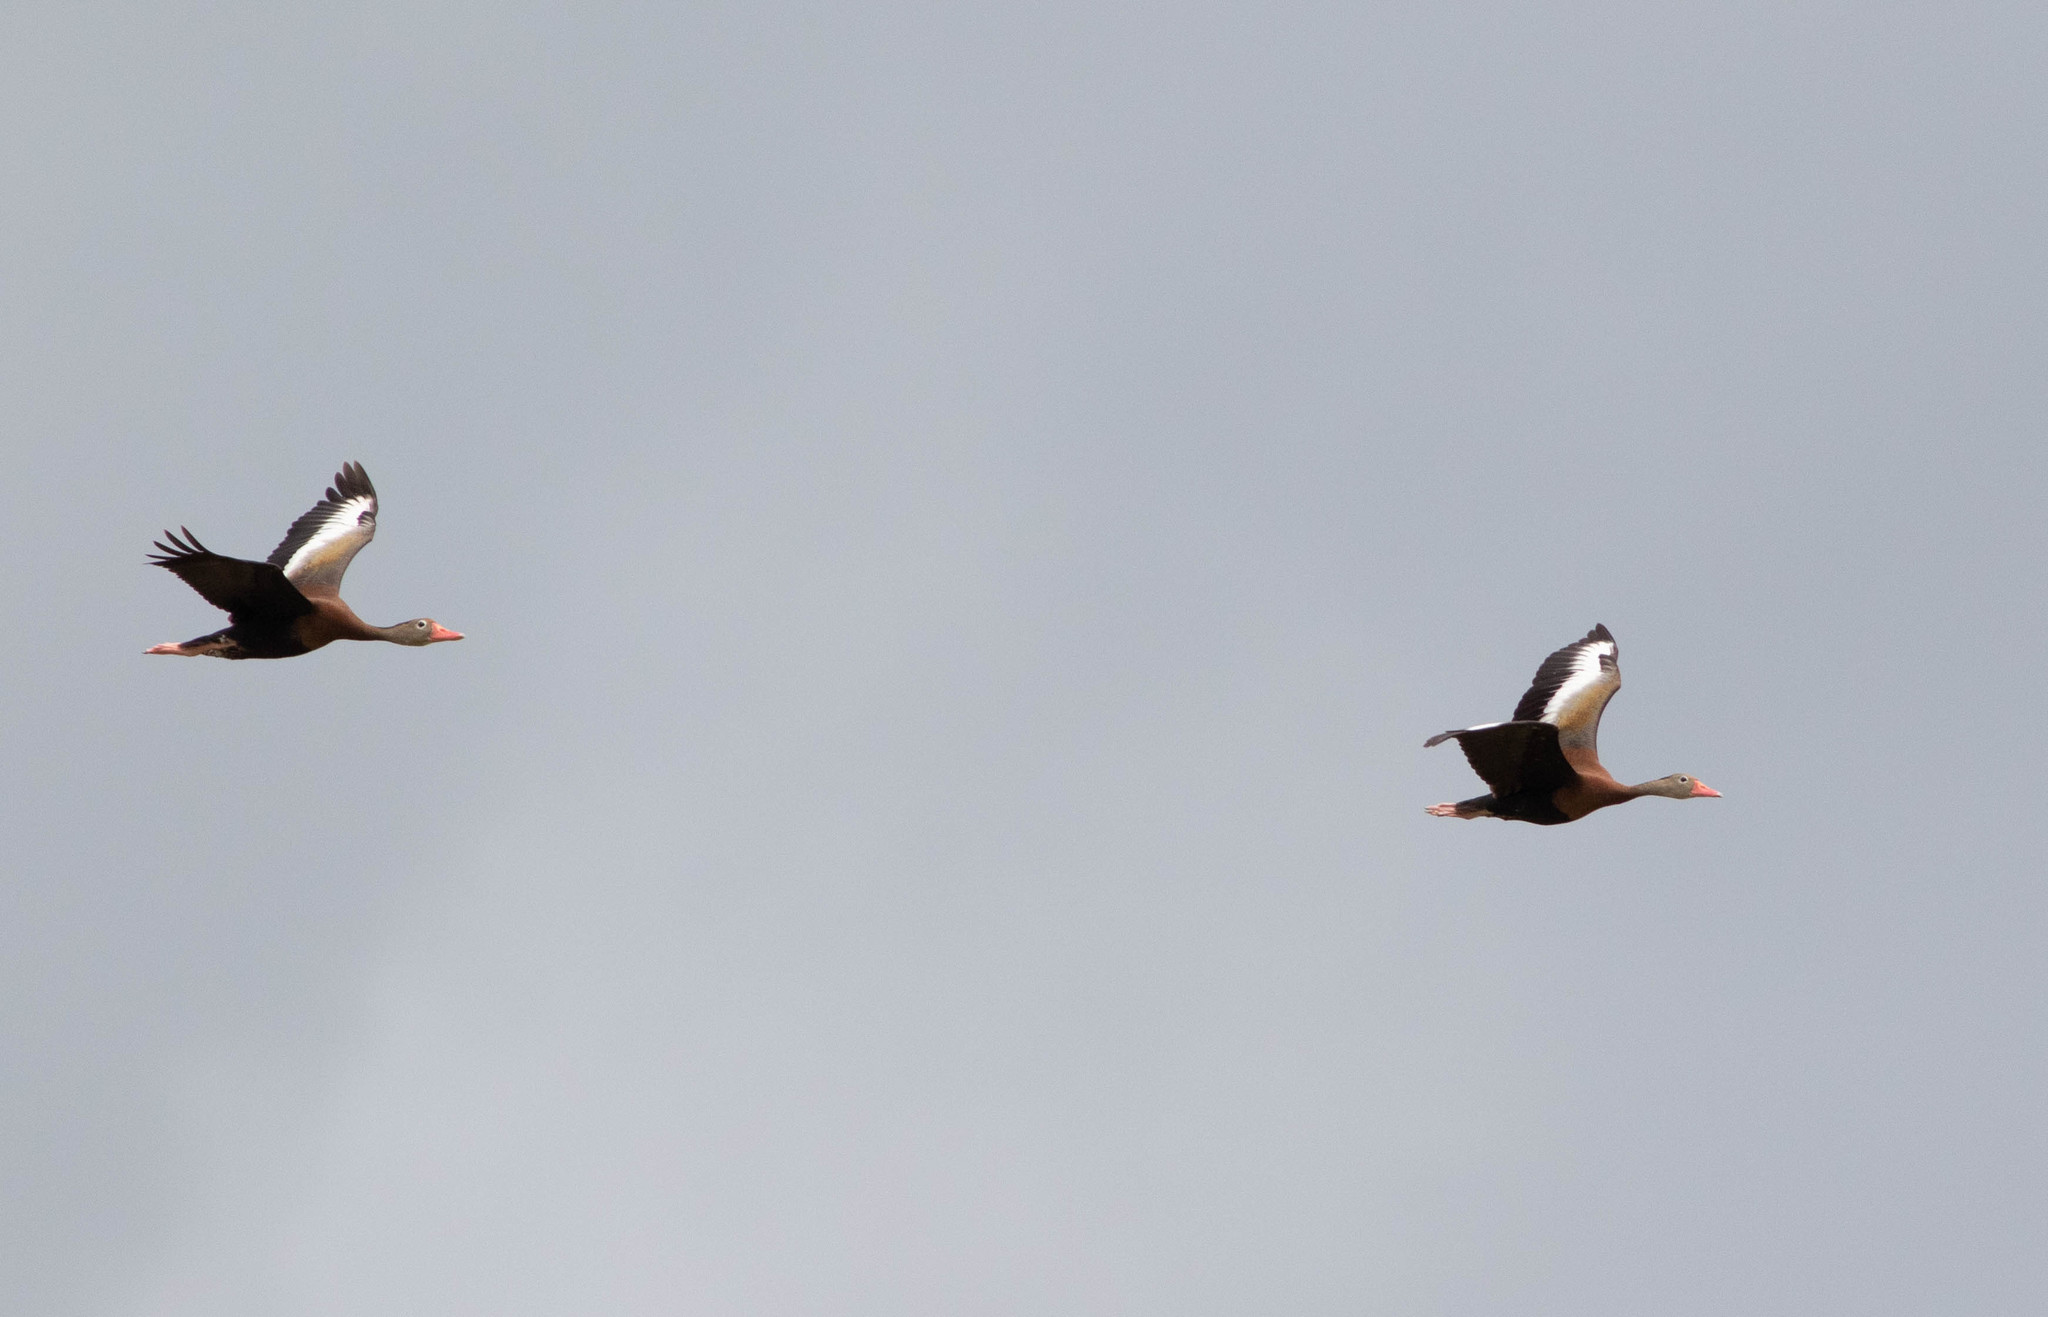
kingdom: Animalia
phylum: Chordata
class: Aves
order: Anseriformes
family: Anatidae
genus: Dendrocygna
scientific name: Dendrocygna autumnalis
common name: Black-bellied whistling duck
